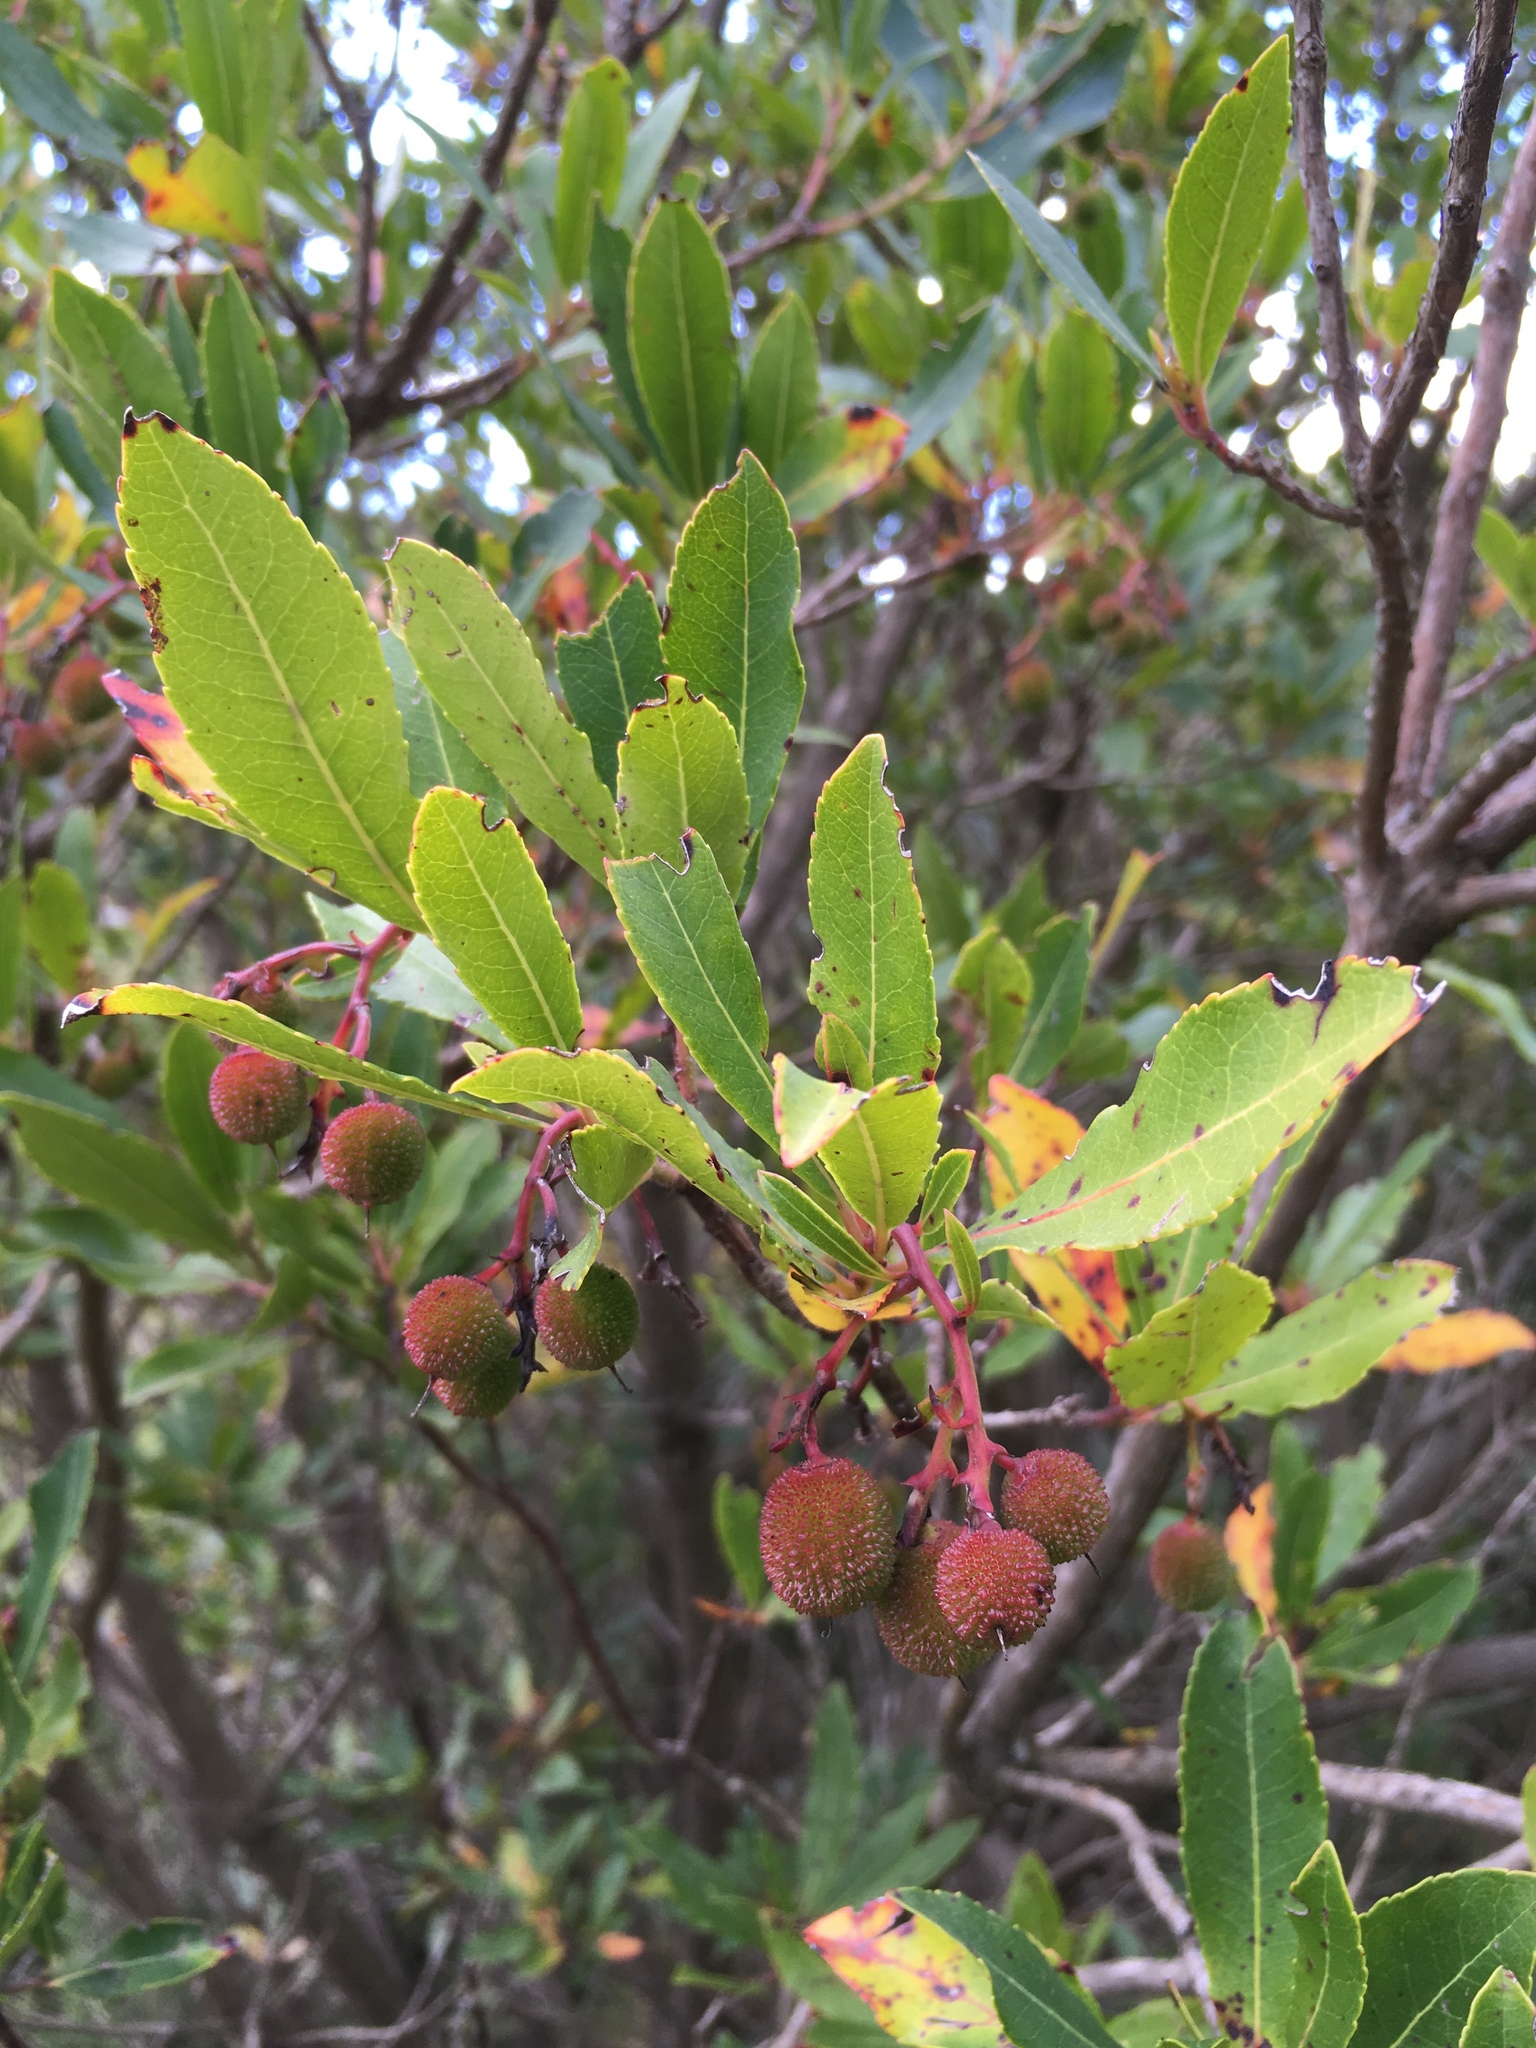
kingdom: Plantae
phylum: Tracheophyta
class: Magnoliopsida
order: Ericales
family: Ericaceae
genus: Arbutus
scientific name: Arbutus unedo
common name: Strawberry-tree
